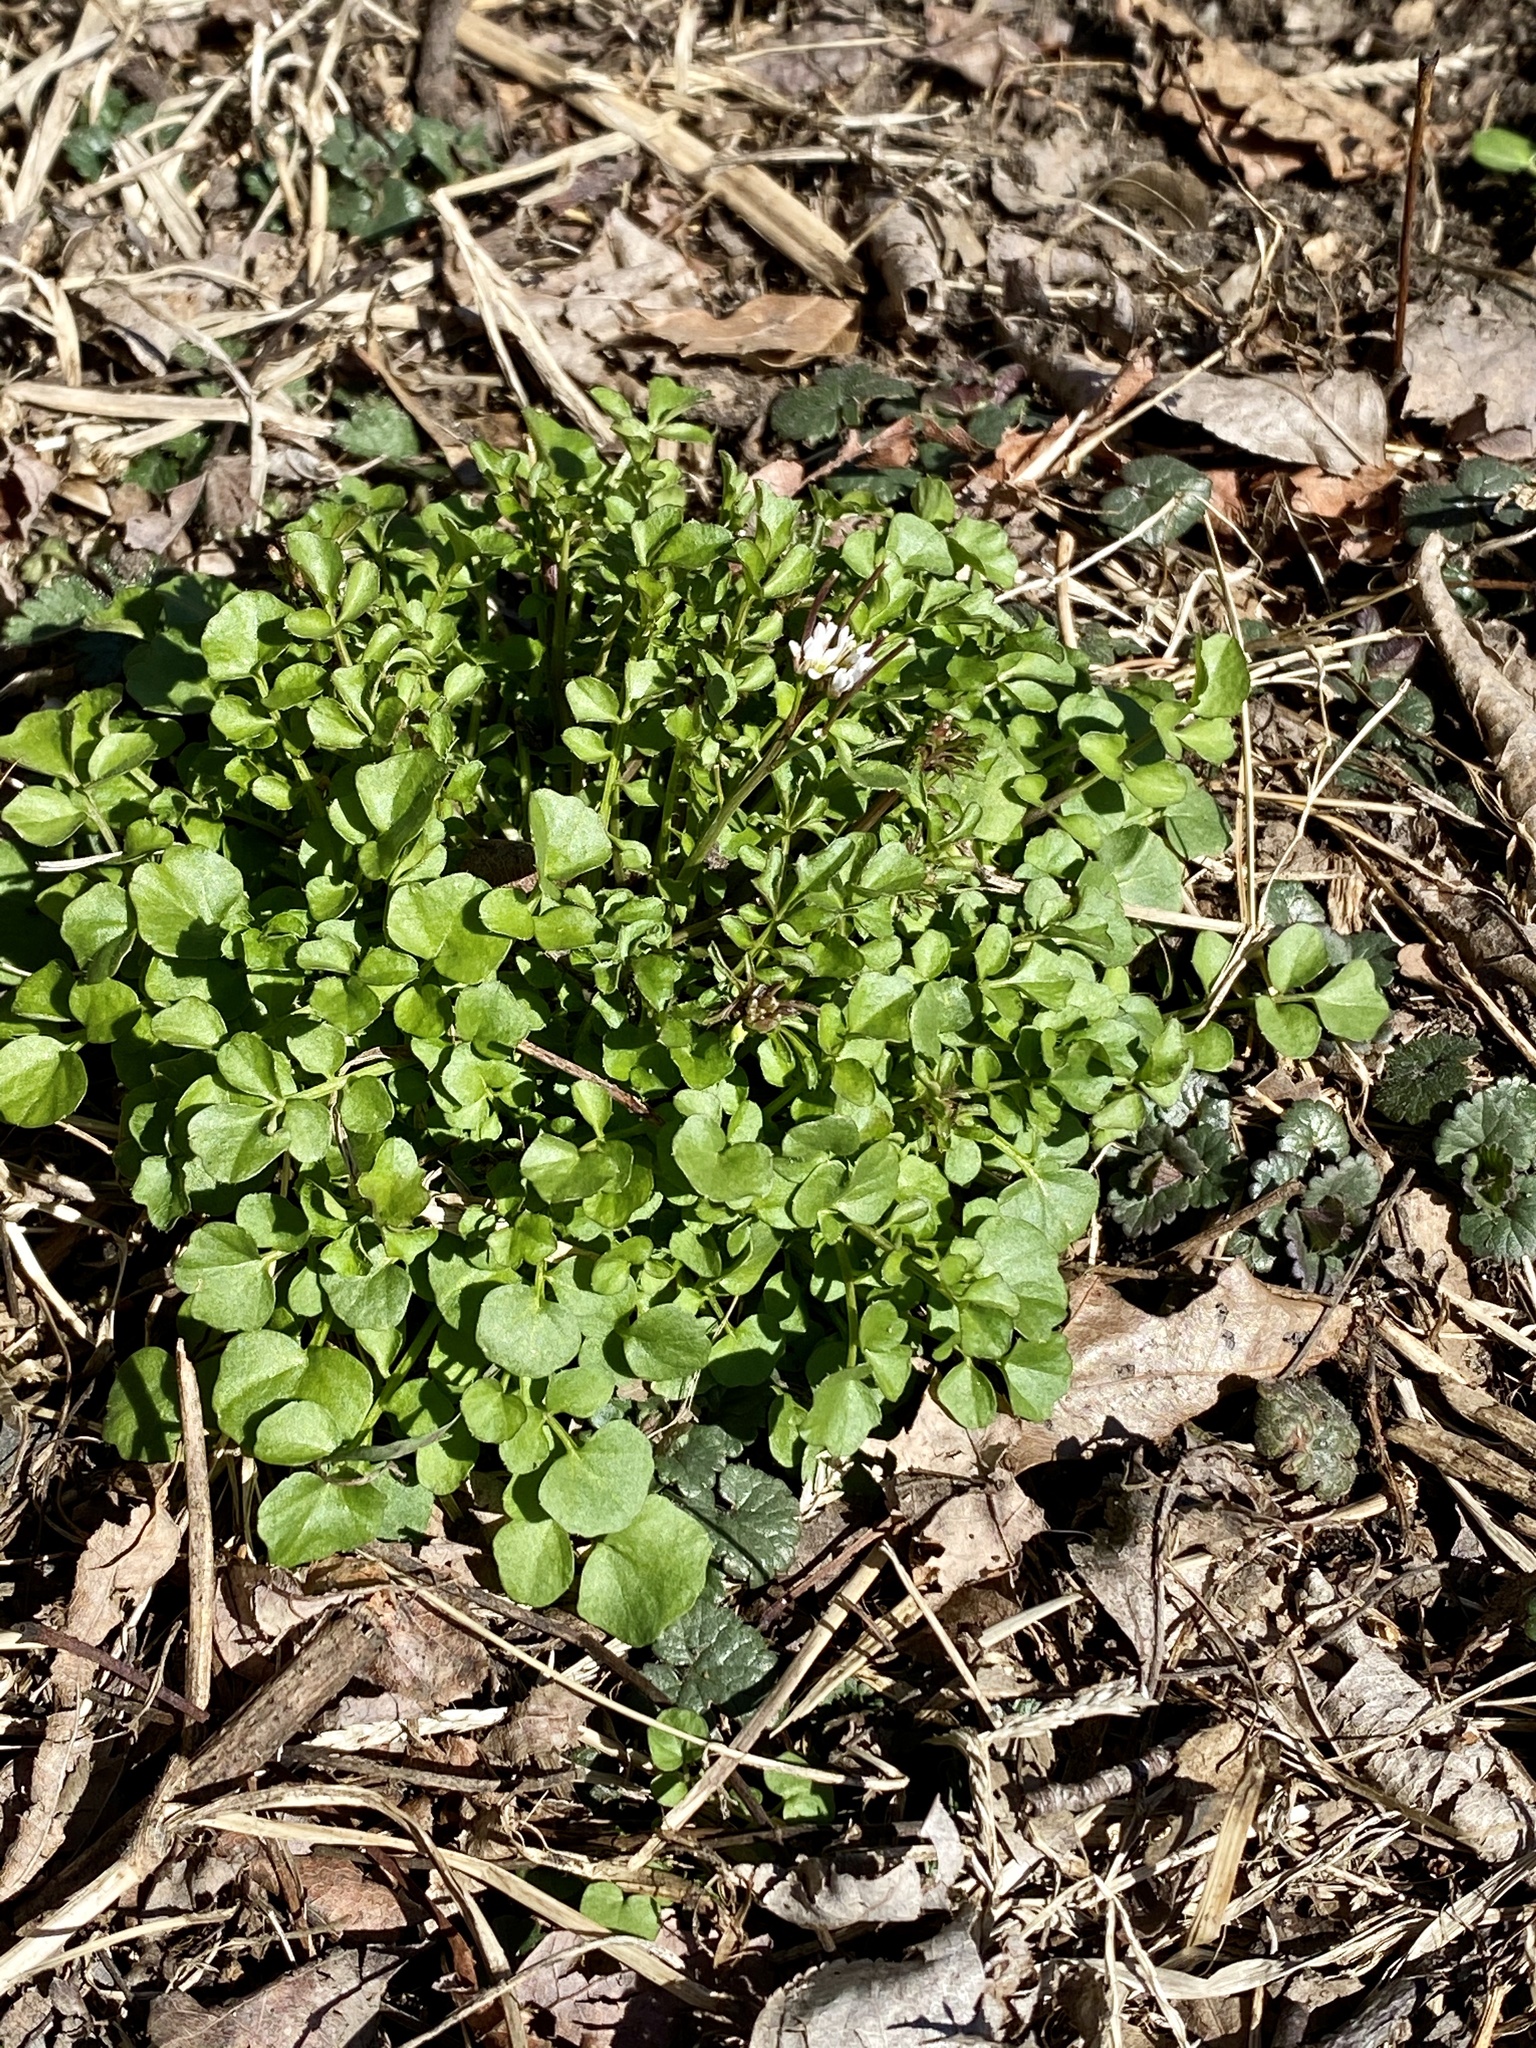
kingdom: Plantae
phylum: Tracheophyta
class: Magnoliopsida
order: Brassicales
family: Brassicaceae
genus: Cardamine
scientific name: Cardamine hirsuta
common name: Hairy bittercress
